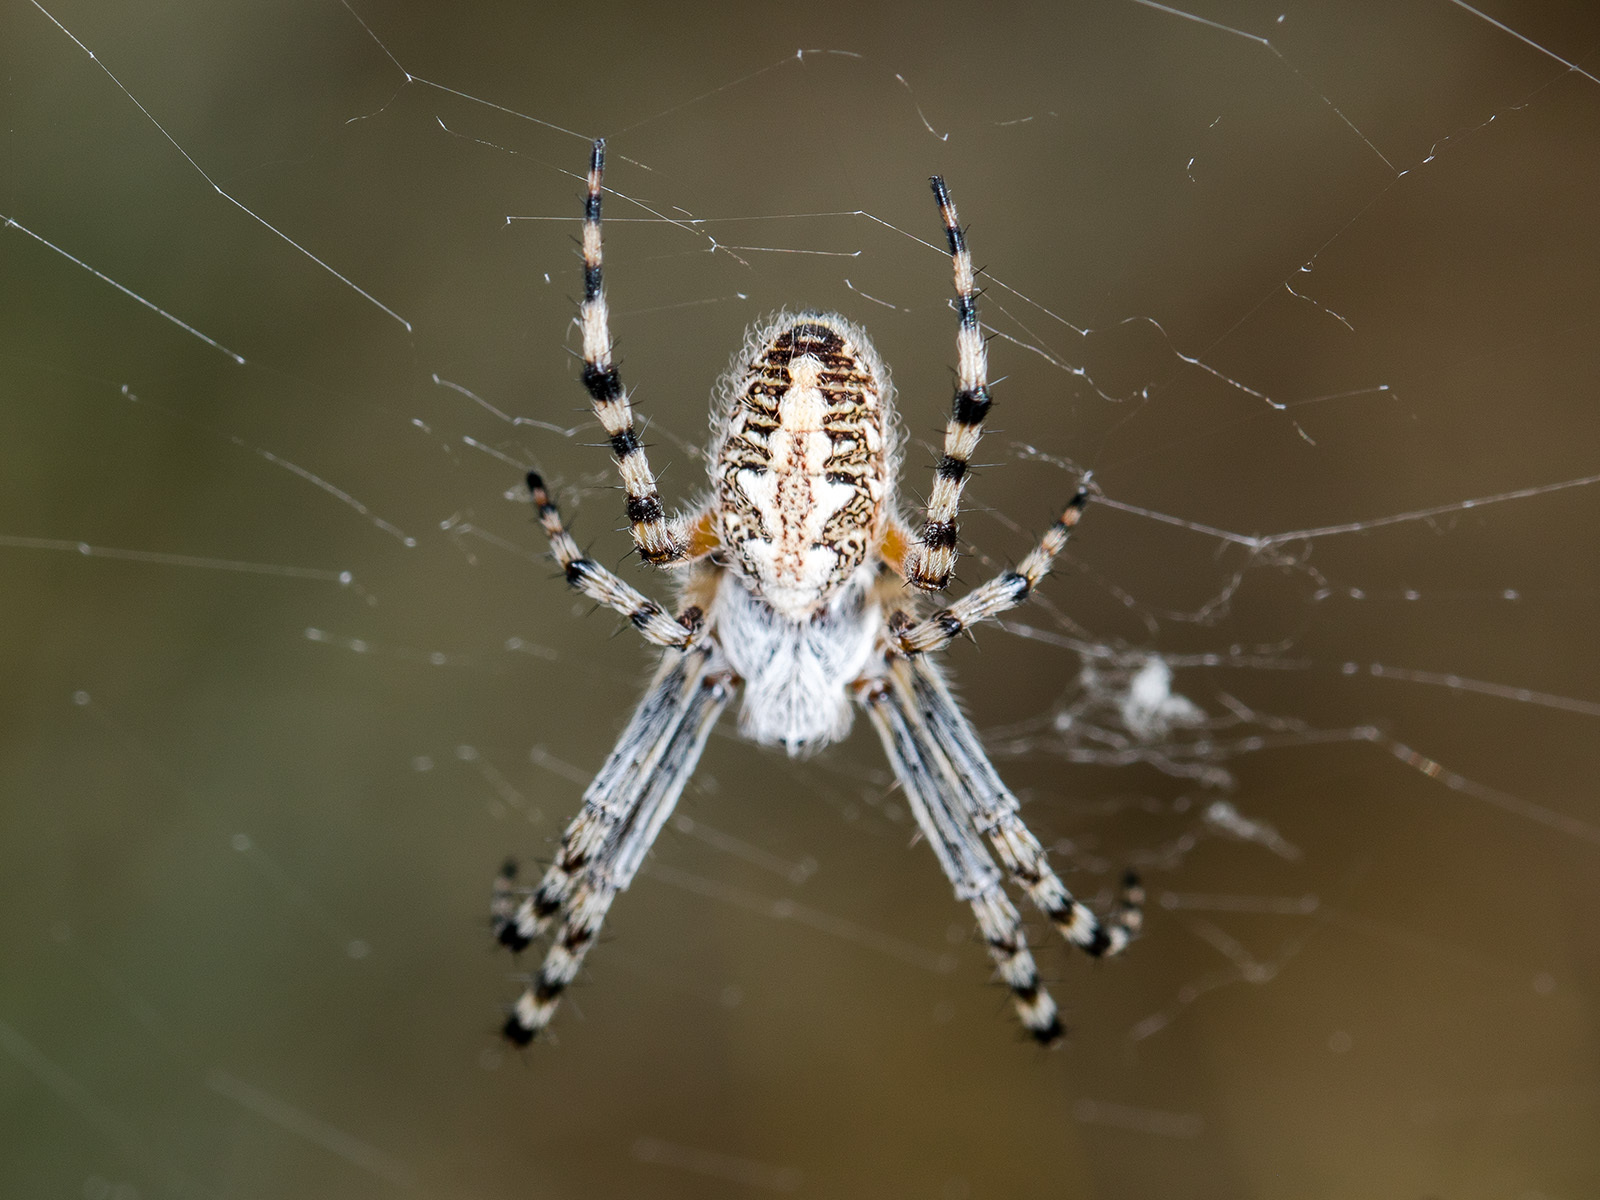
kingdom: Animalia
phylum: Arthropoda
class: Arachnida
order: Araneae
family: Araneidae
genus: Aculepeira
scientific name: Aculepeira armida
